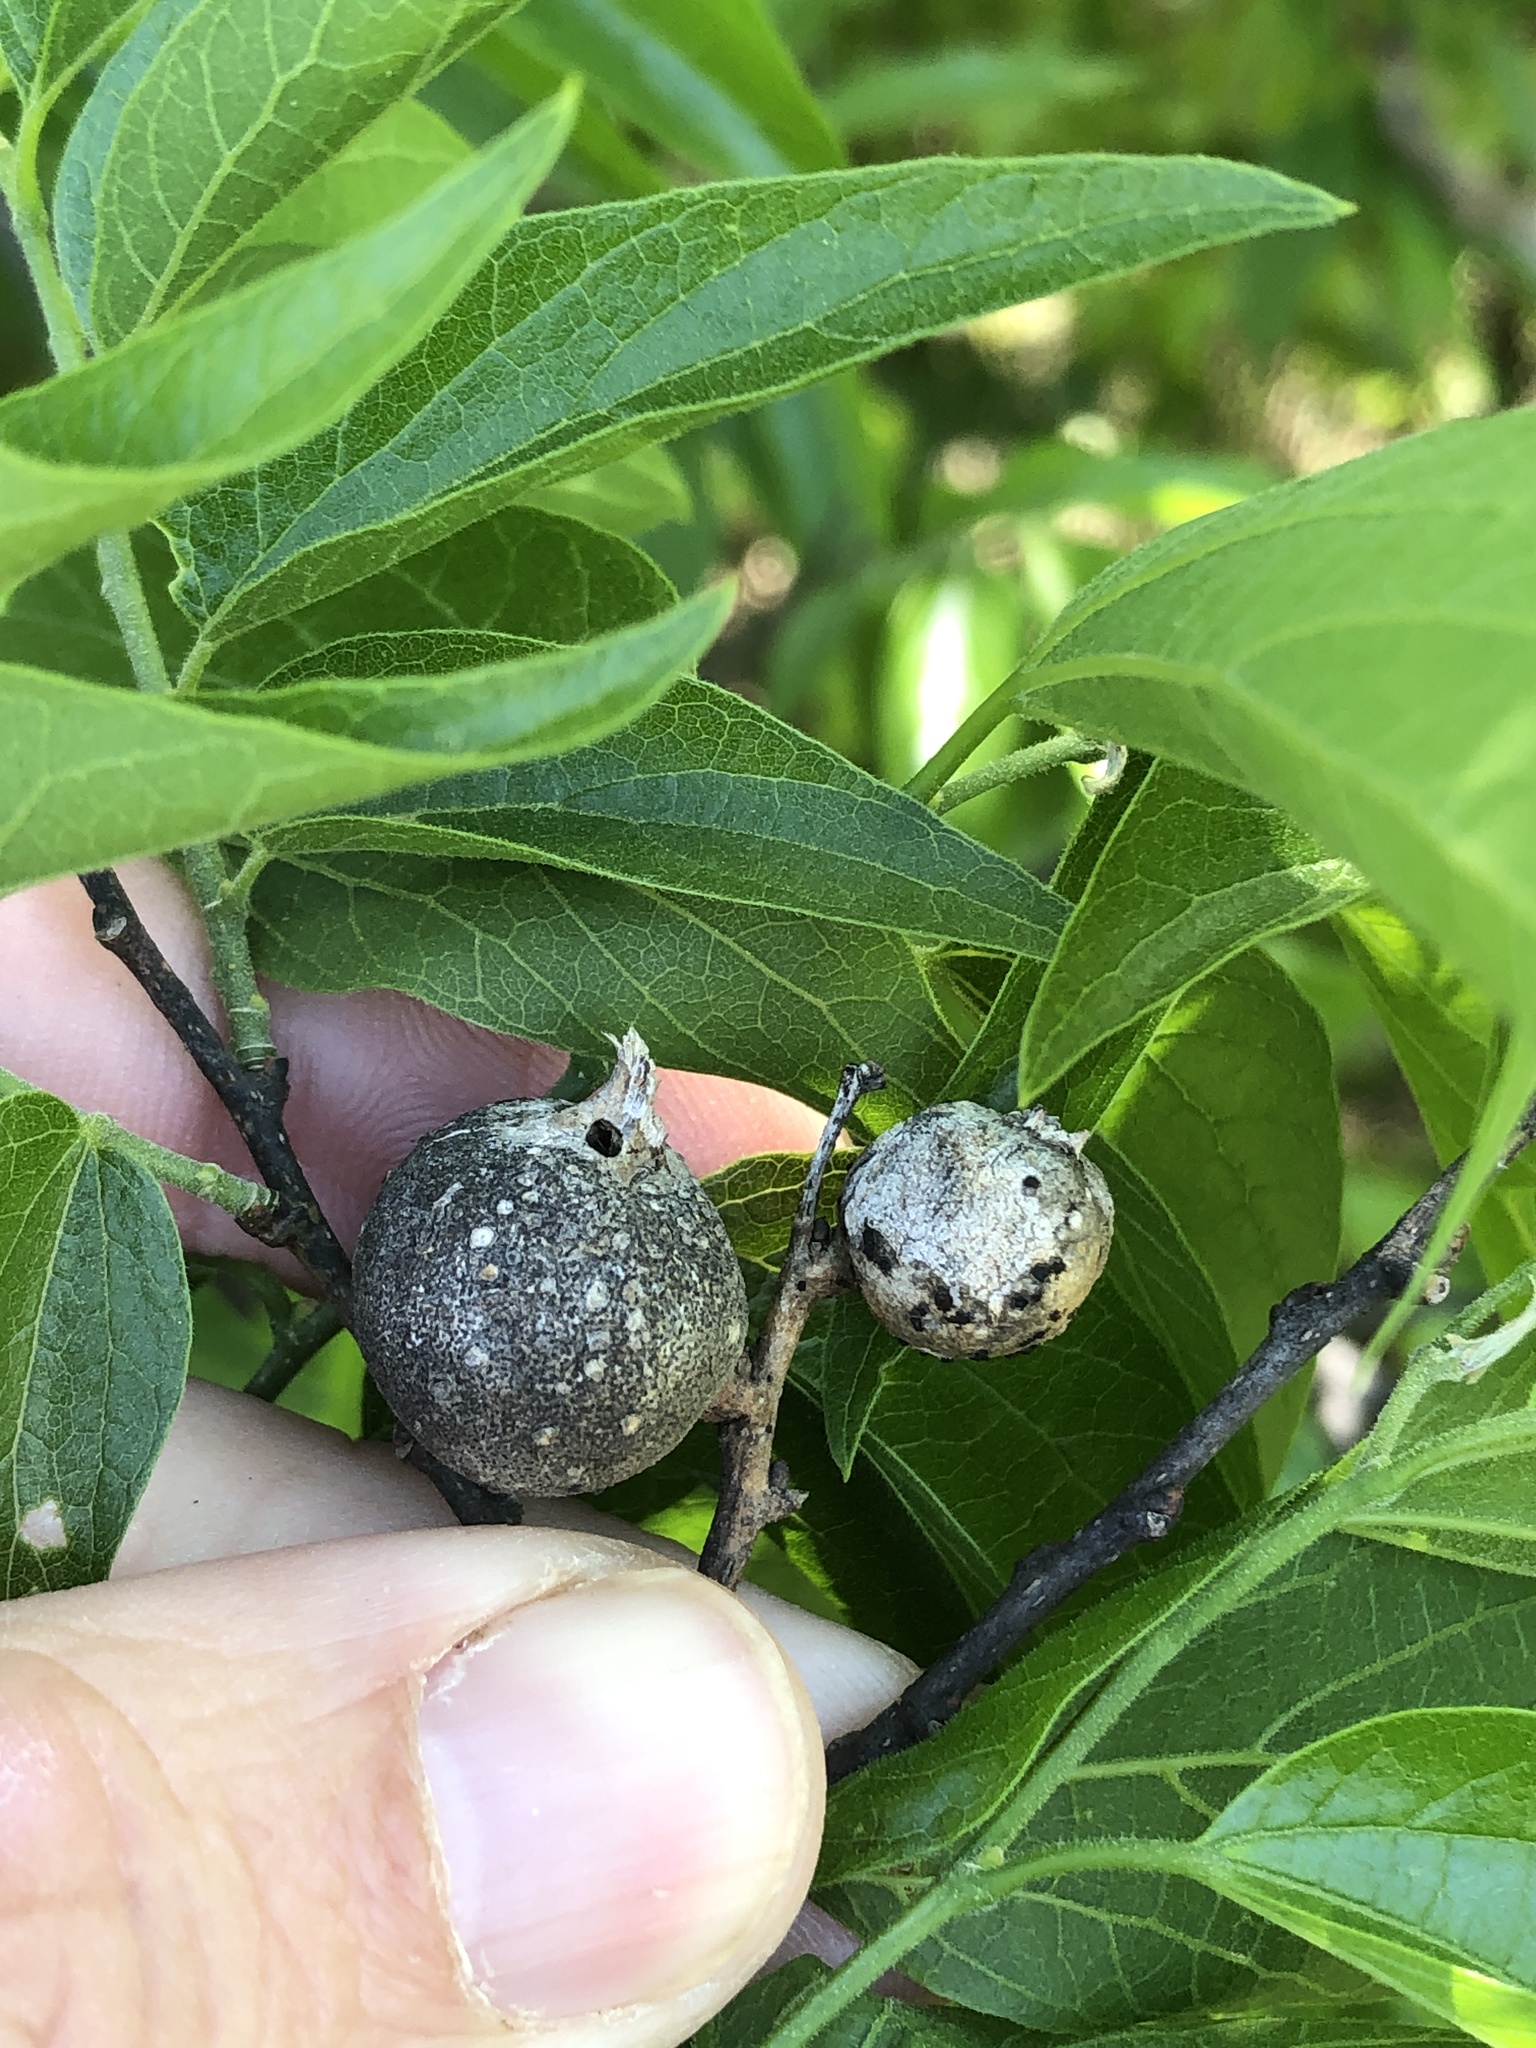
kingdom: Animalia
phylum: Arthropoda
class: Insecta
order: Hemiptera
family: Aphalaridae
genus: Pachypsylla
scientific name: Pachypsylla venusta
